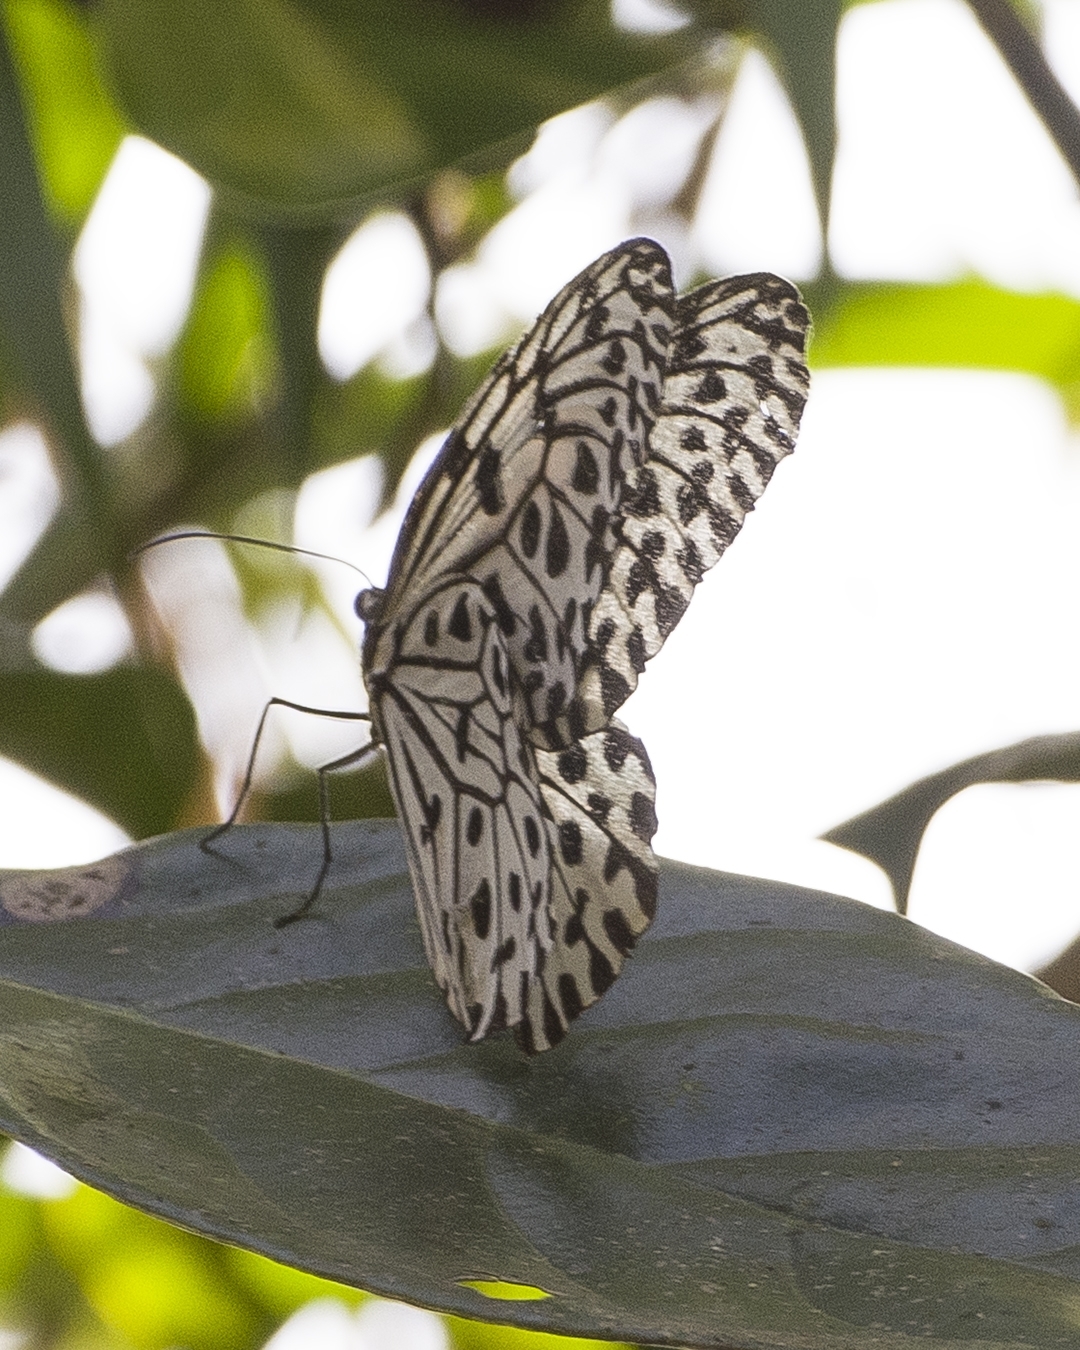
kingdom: Animalia
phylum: Arthropoda
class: Insecta
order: Lepidoptera
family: Nymphalidae
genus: Idea
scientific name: Idea malabarica
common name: Malabar tree-nymph
